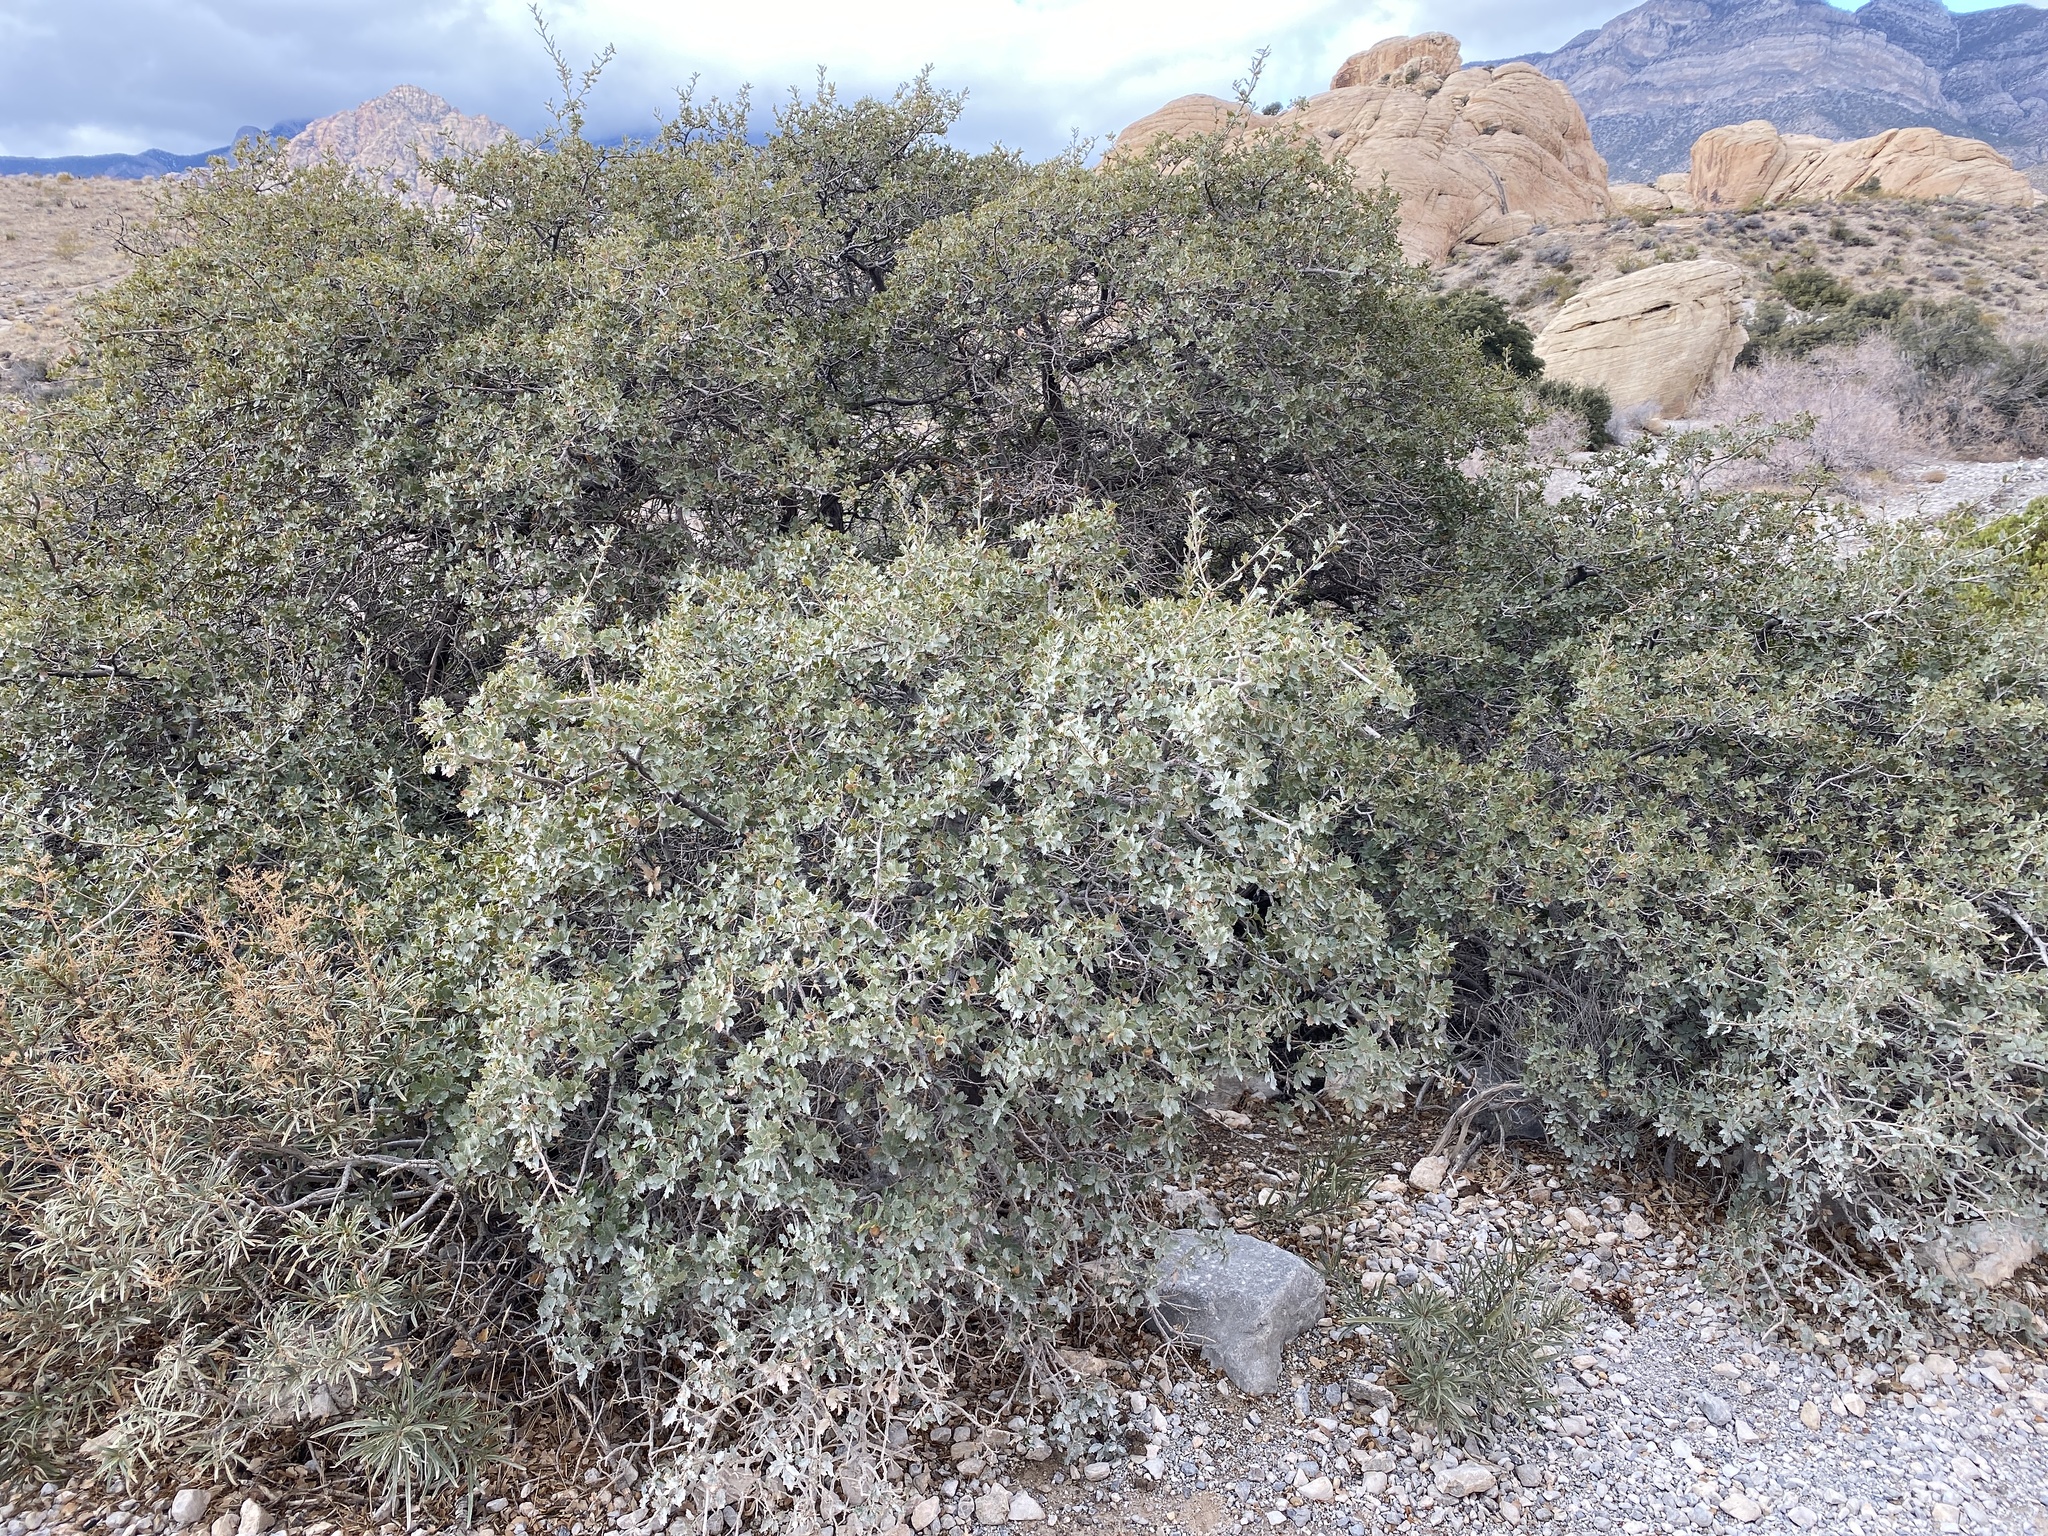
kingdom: Plantae
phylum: Tracheophyta
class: Magnoliopsida
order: Fagales
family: Fagaceae
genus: Quercus
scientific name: Quercus turbinella
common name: Sonoran scrub oak
